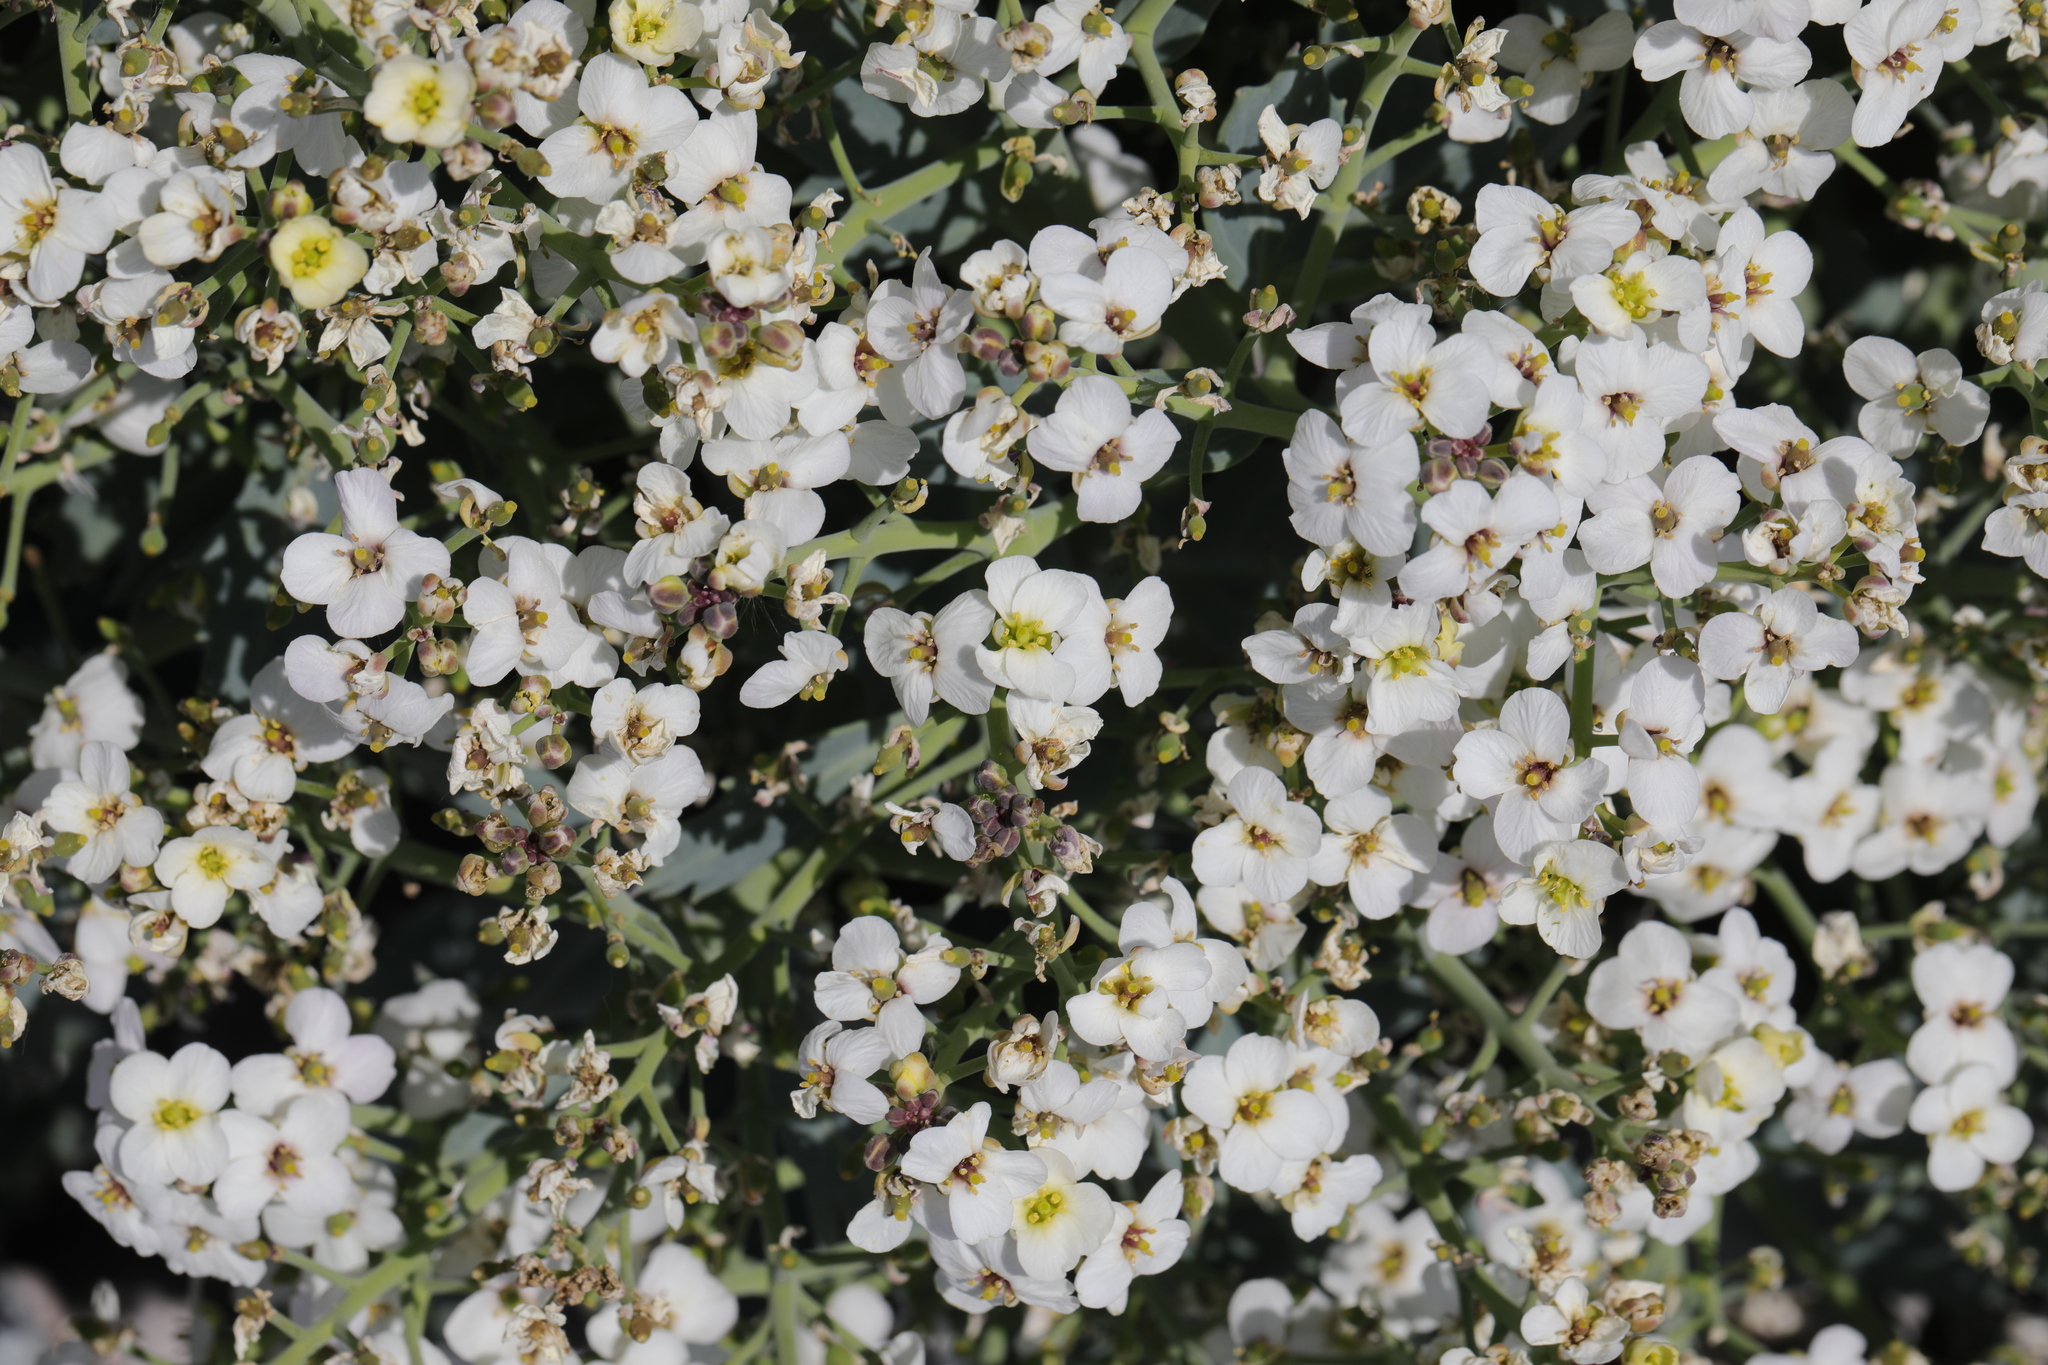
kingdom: Plantae
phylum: Tracheophyta
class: Magnoliopsida
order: Brassicales
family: Brassicaceae
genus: Crambe
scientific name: Crambe maritima
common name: Sea-kale
